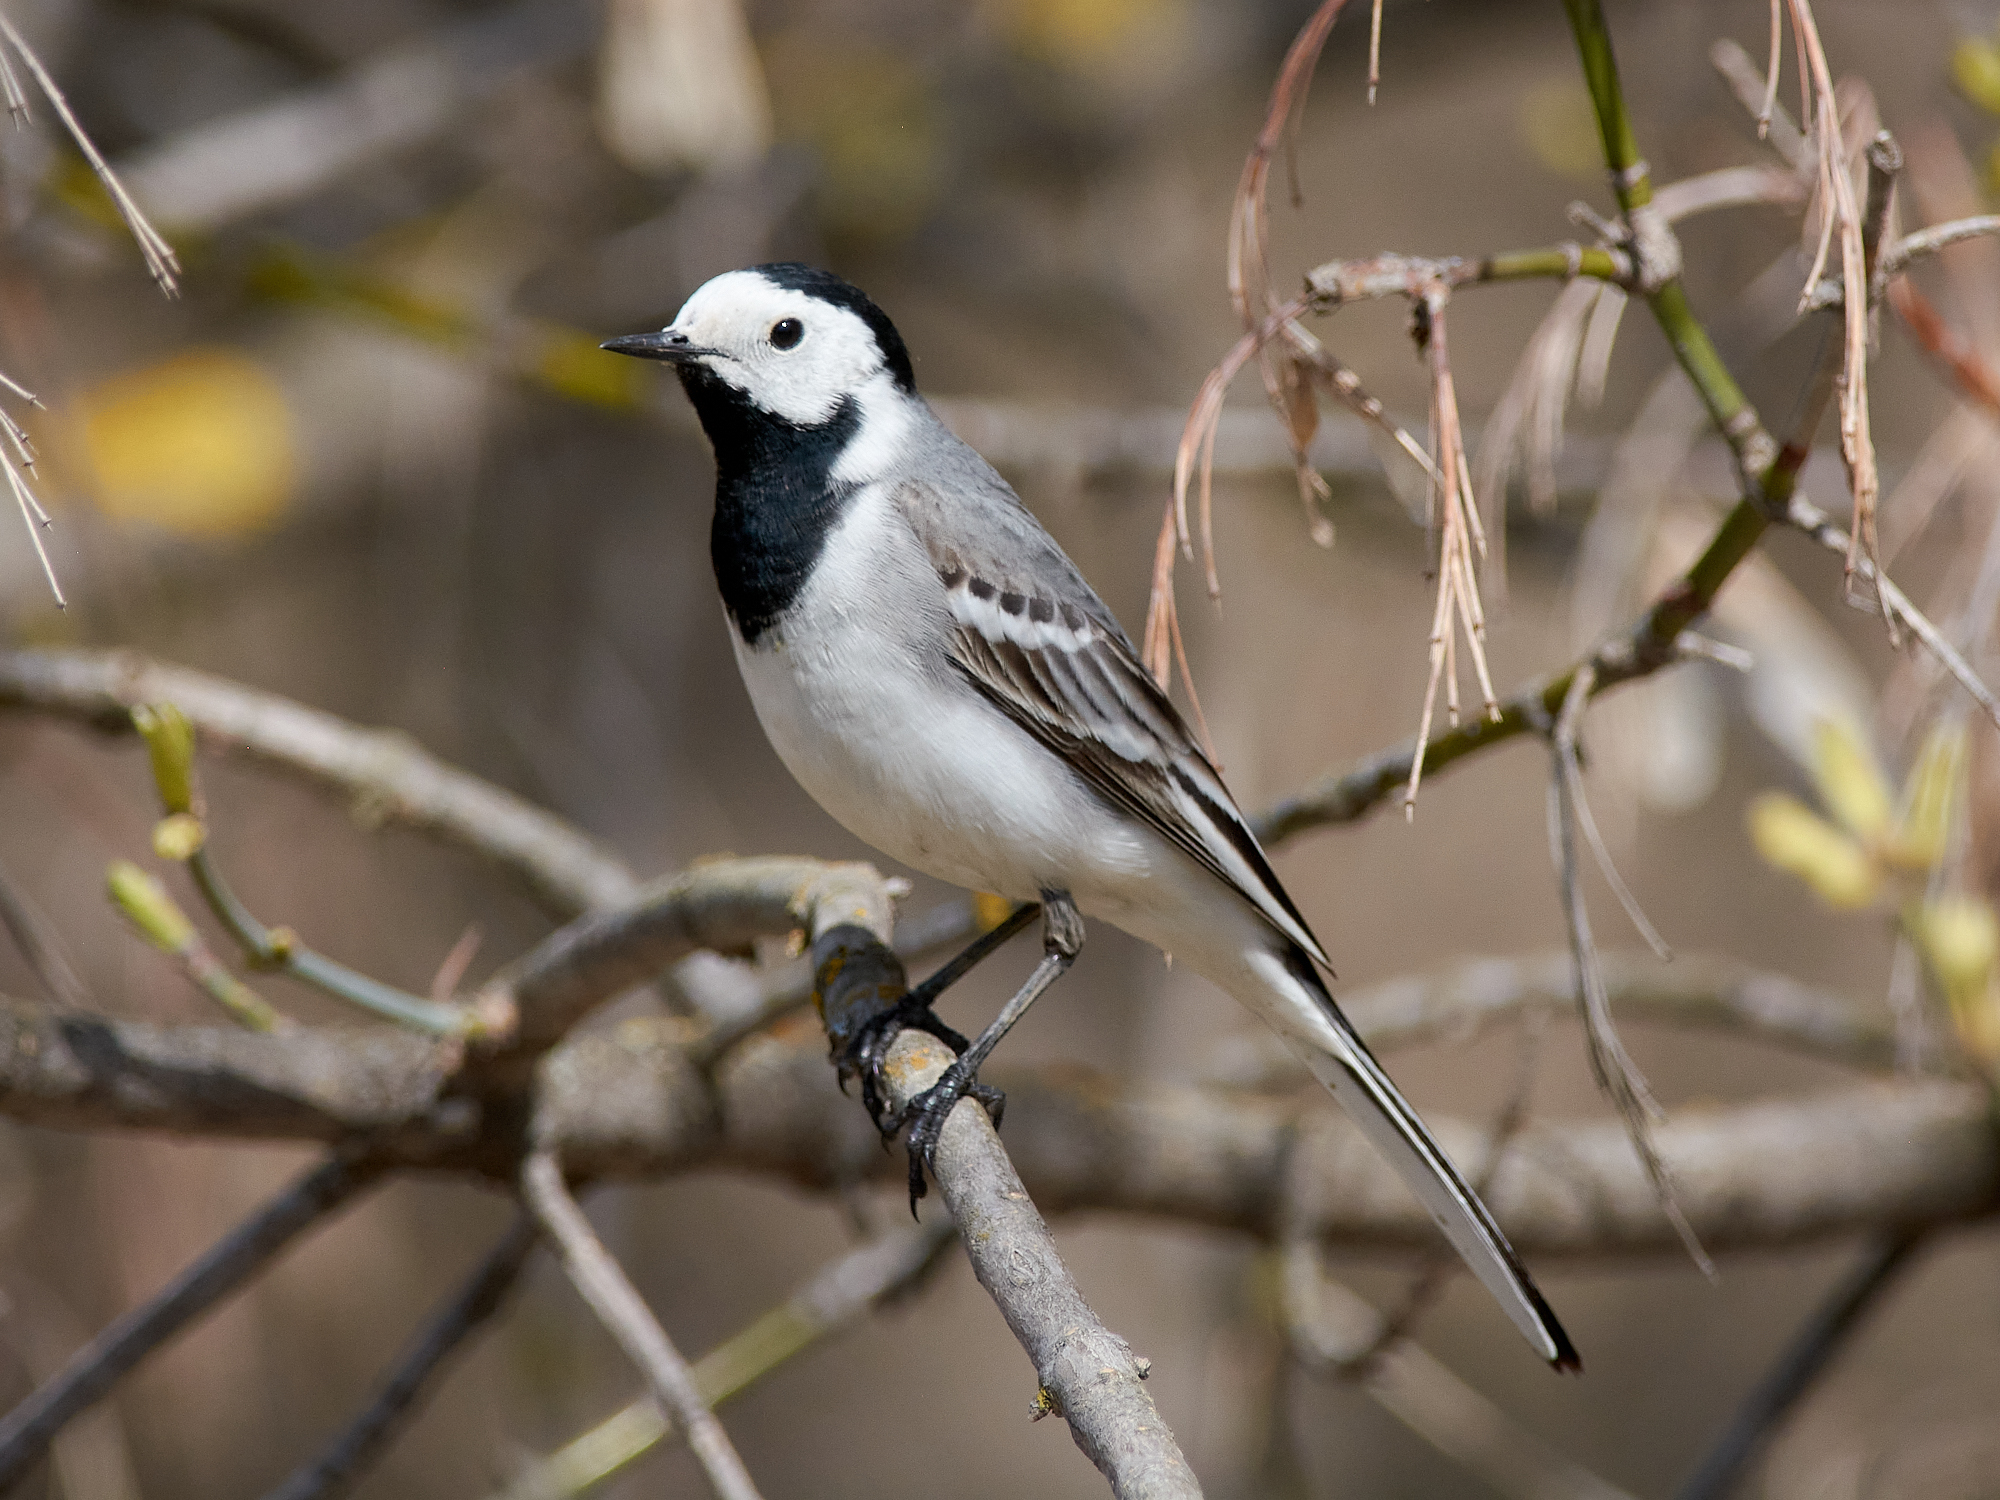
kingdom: Animalia
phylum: Chordata
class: Aves
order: Passeriformes
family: Motacillidae
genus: Motacilla
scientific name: Motacilla alba
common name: White wagtail
